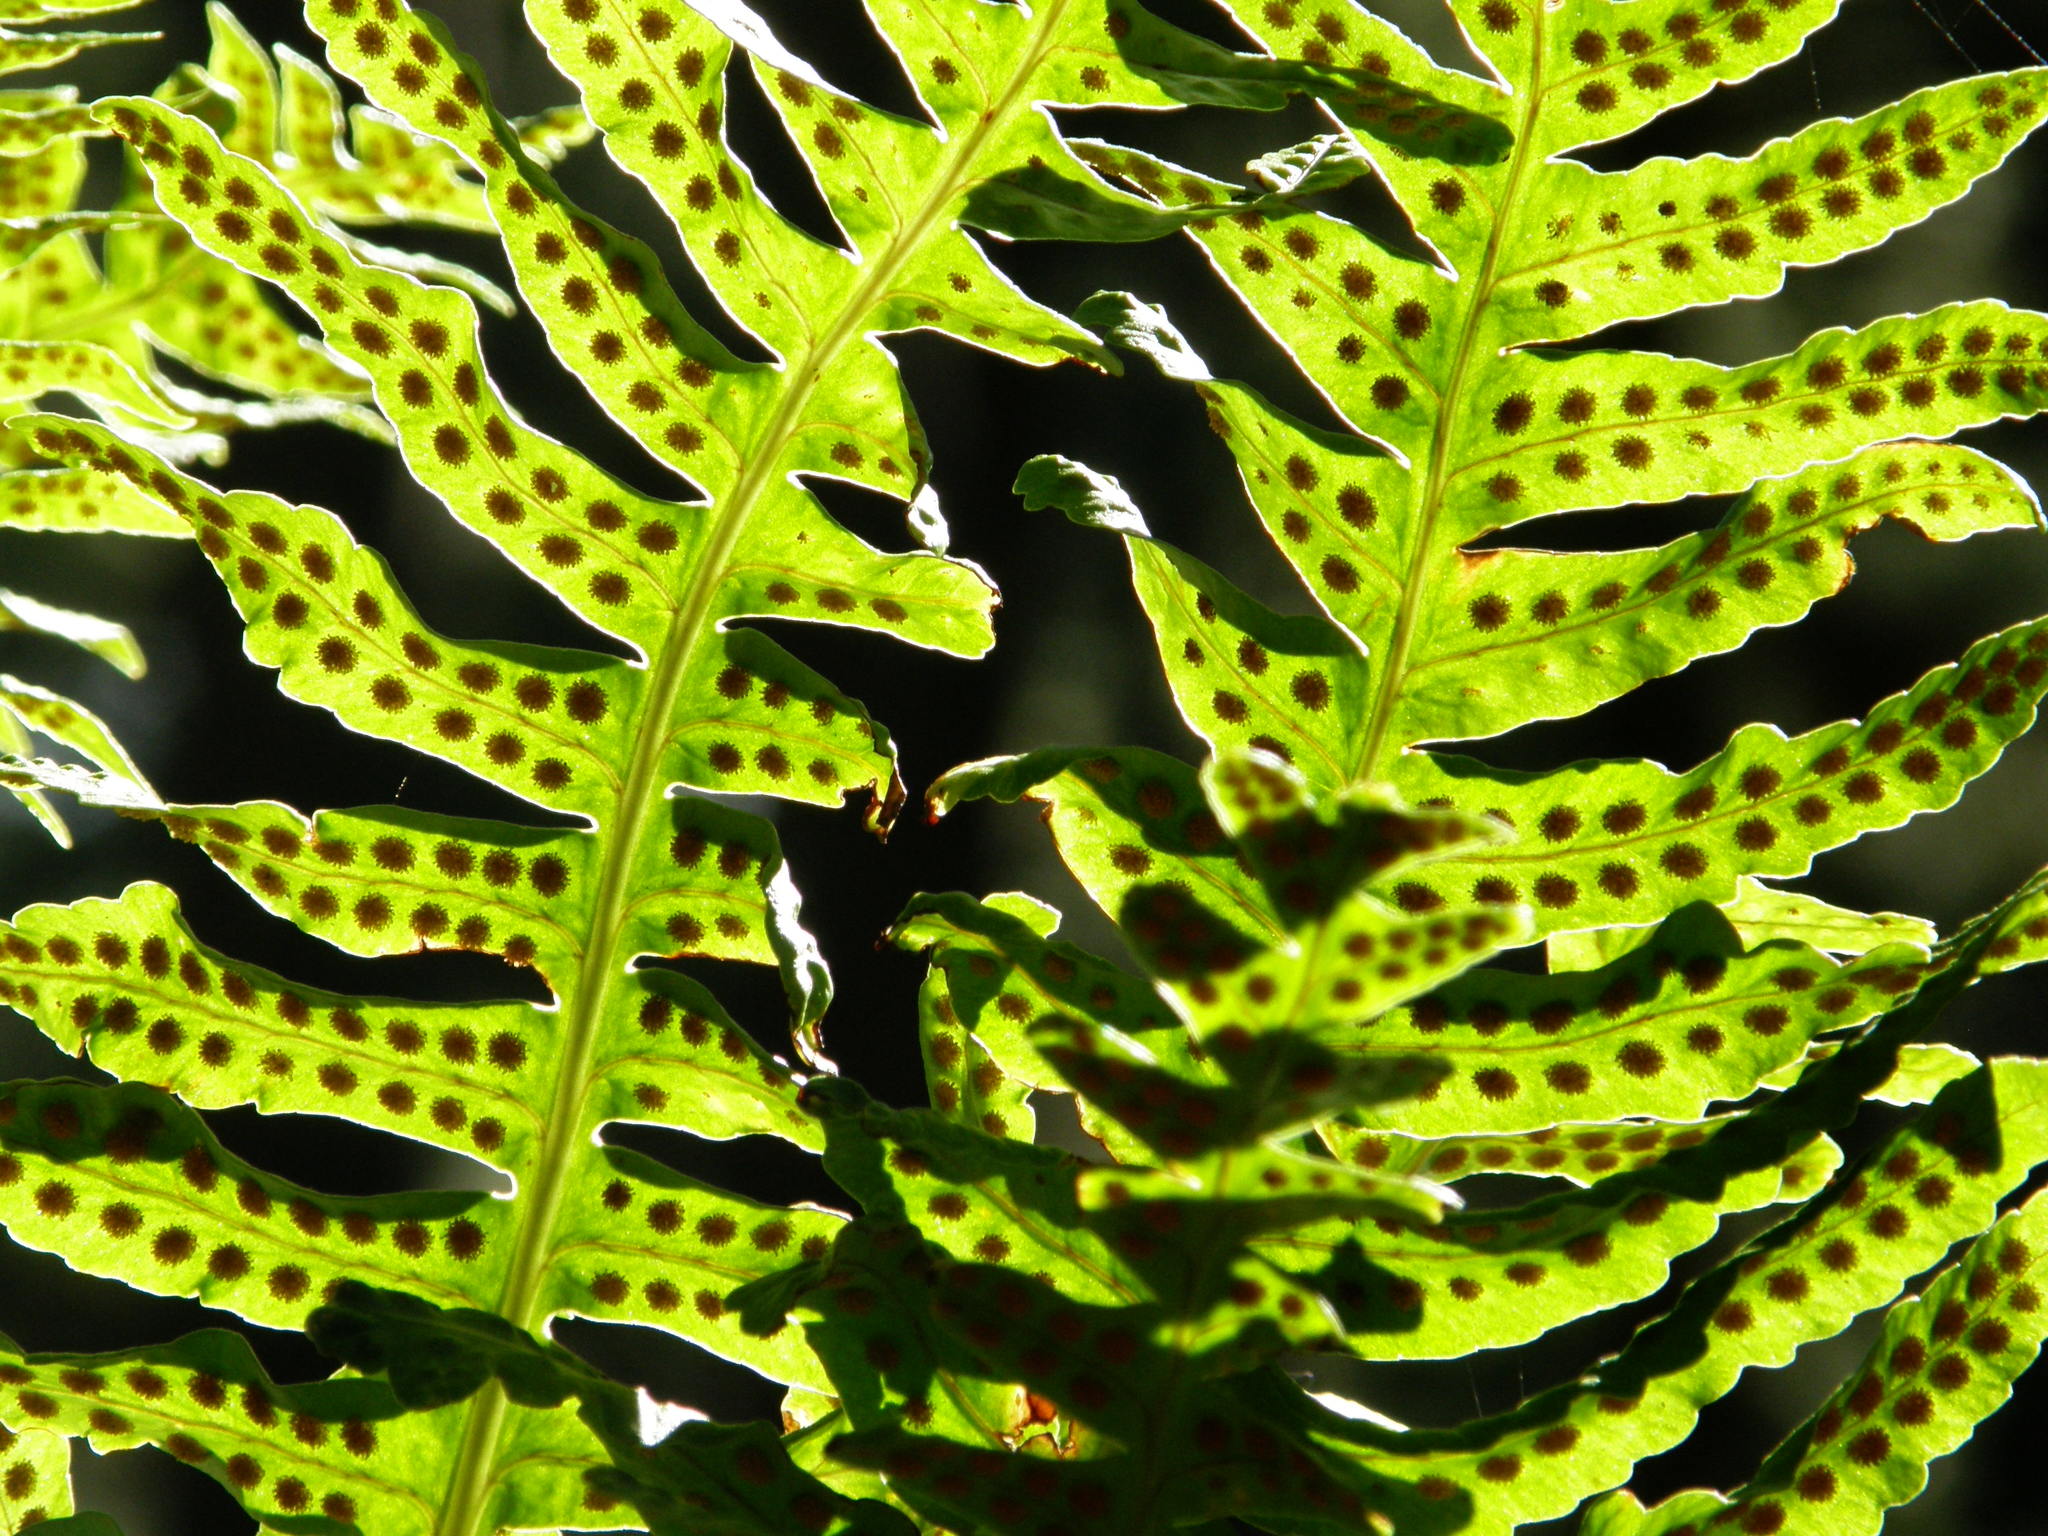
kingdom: Plantae
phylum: Tracheophyta
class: Polypodiopsida
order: Polypodiales
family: Polypodiaceae
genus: Polypodium
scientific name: Polypodium macaronesicum
